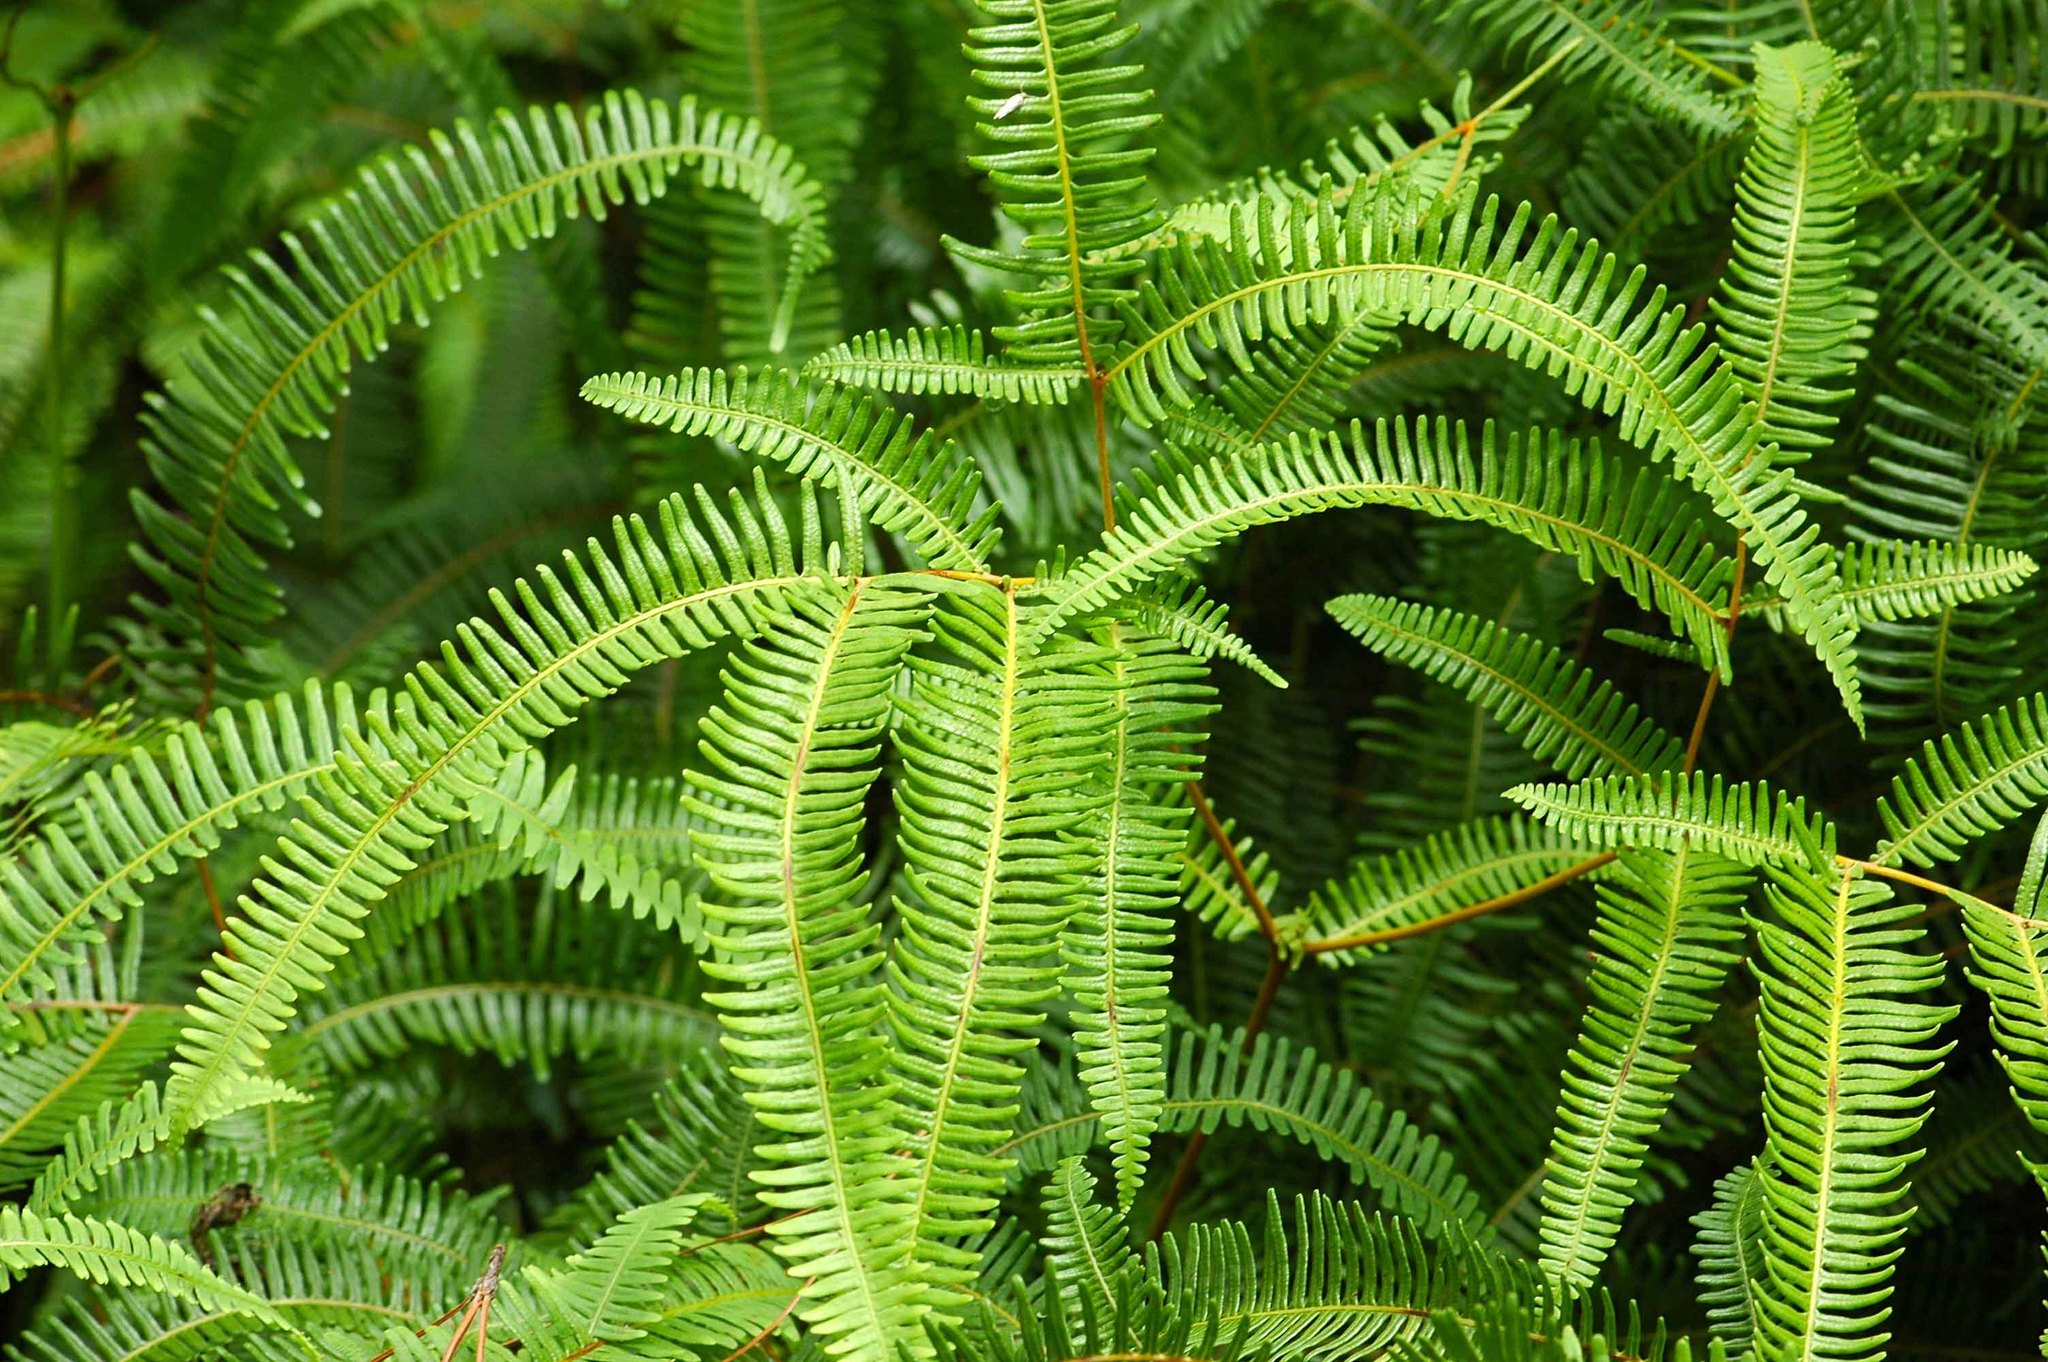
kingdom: Plantae
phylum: Tracheophyta
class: Polypodiopsida
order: Gleicheniales
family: Gleicheniaceae
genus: Dicranopteris
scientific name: Dicranopteris linearis
